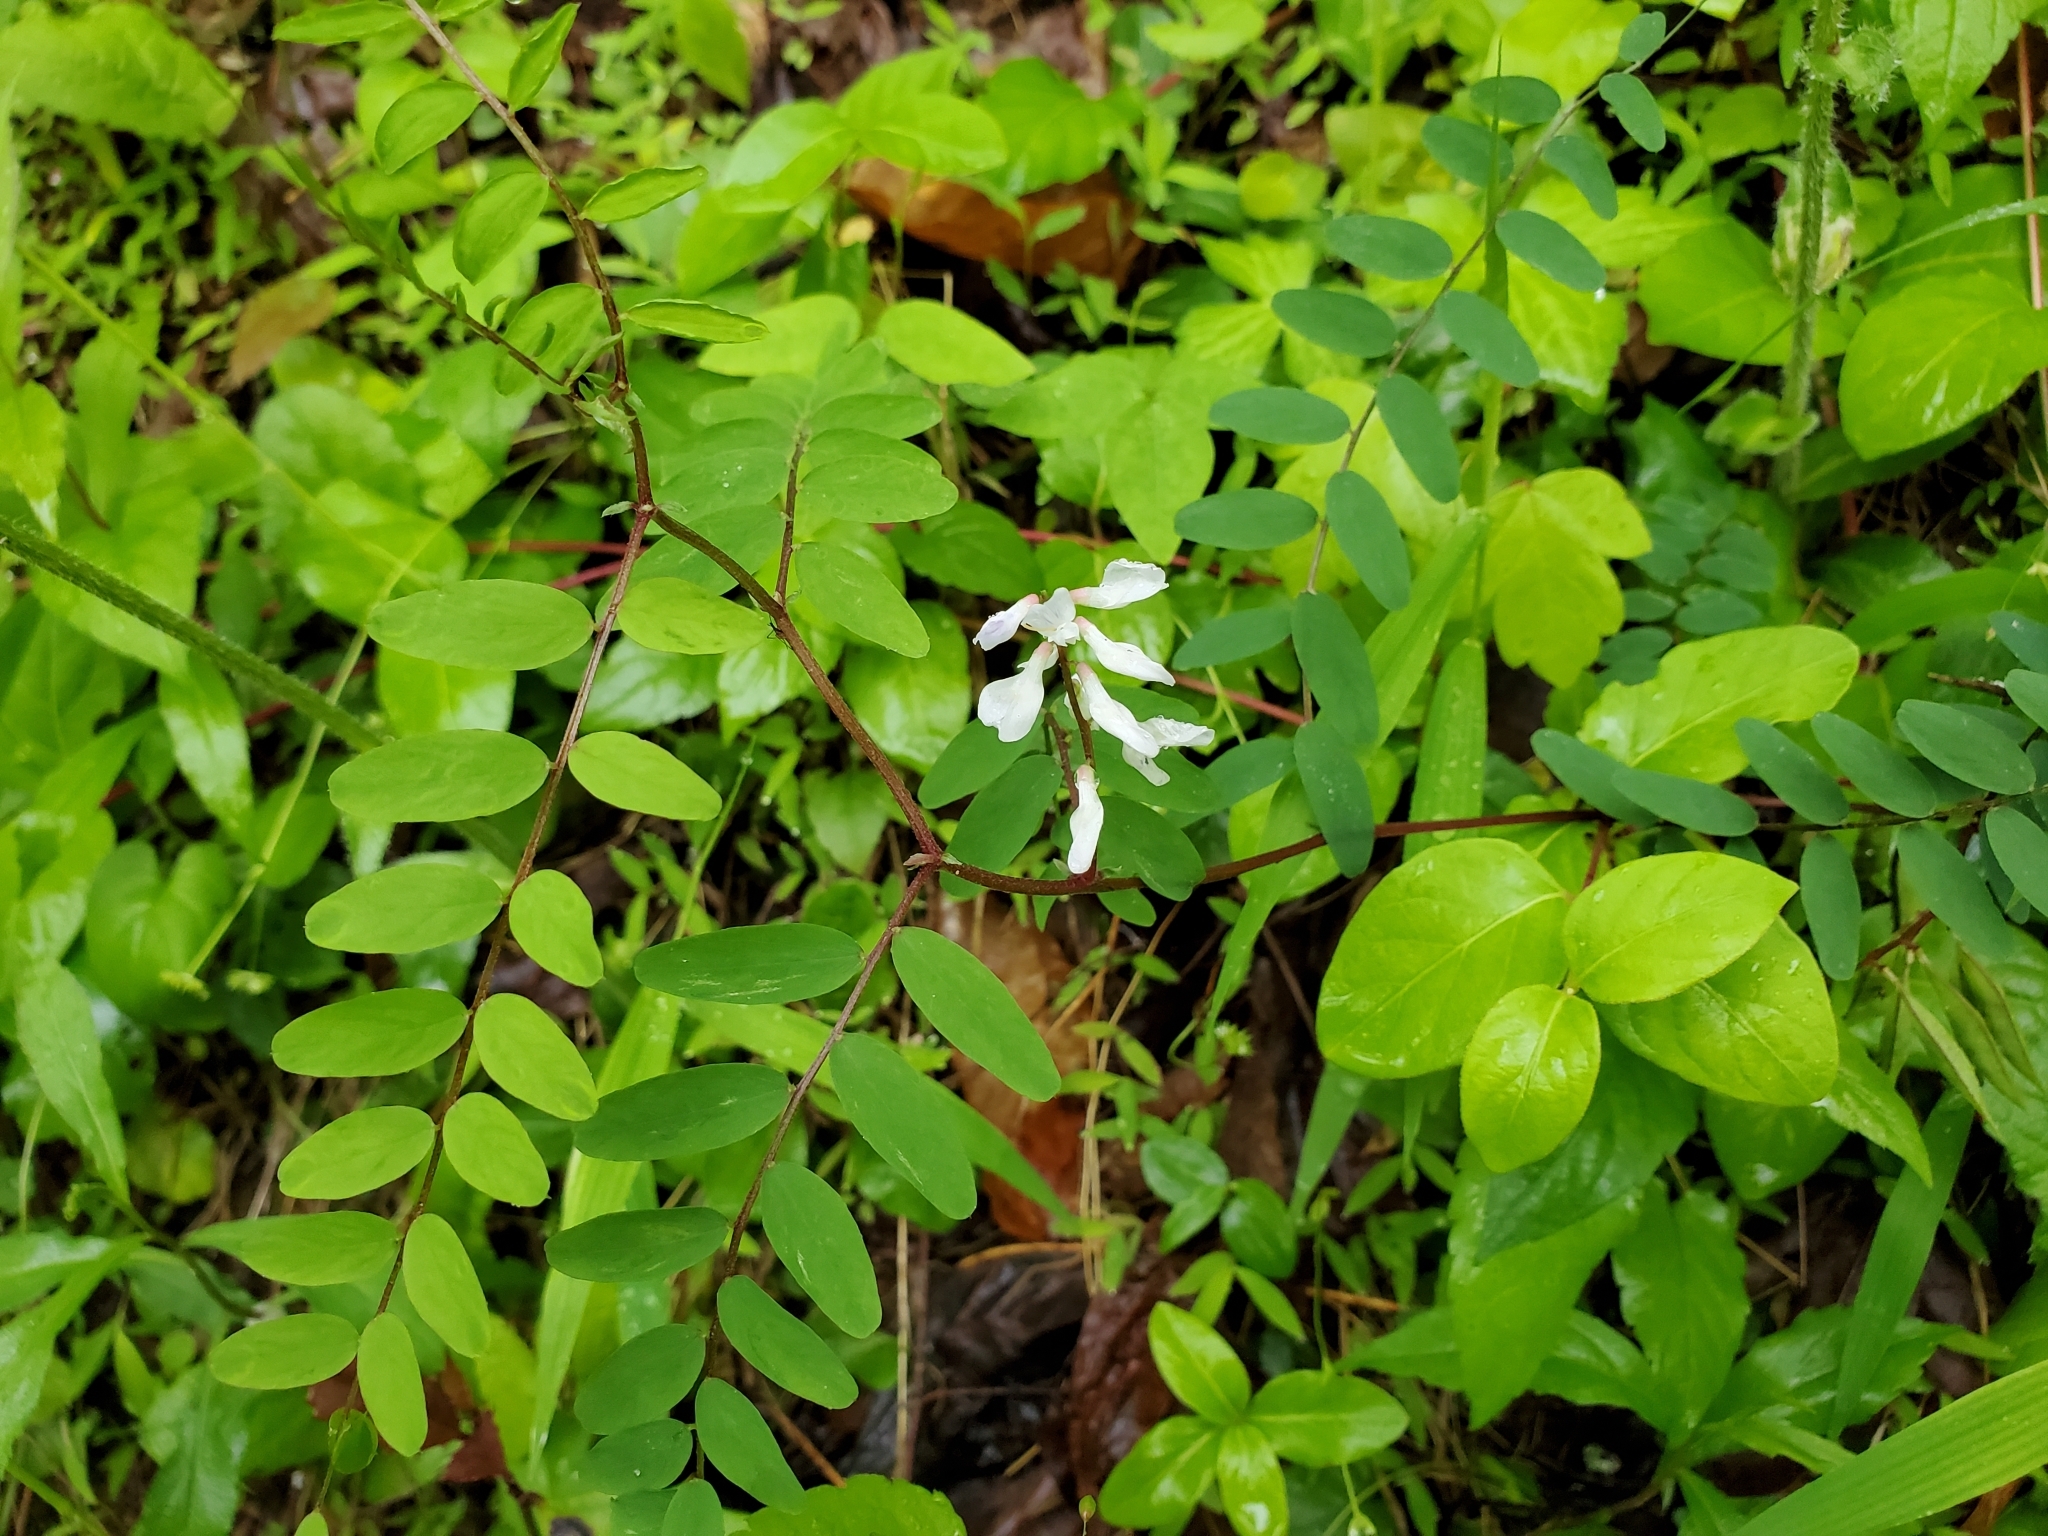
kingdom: Plantae
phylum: Tracheophyta
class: Magnoliopsida
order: Fabales
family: Fabaceae
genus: Vicia
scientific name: Vicia caroliniana
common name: Carolina vetch
